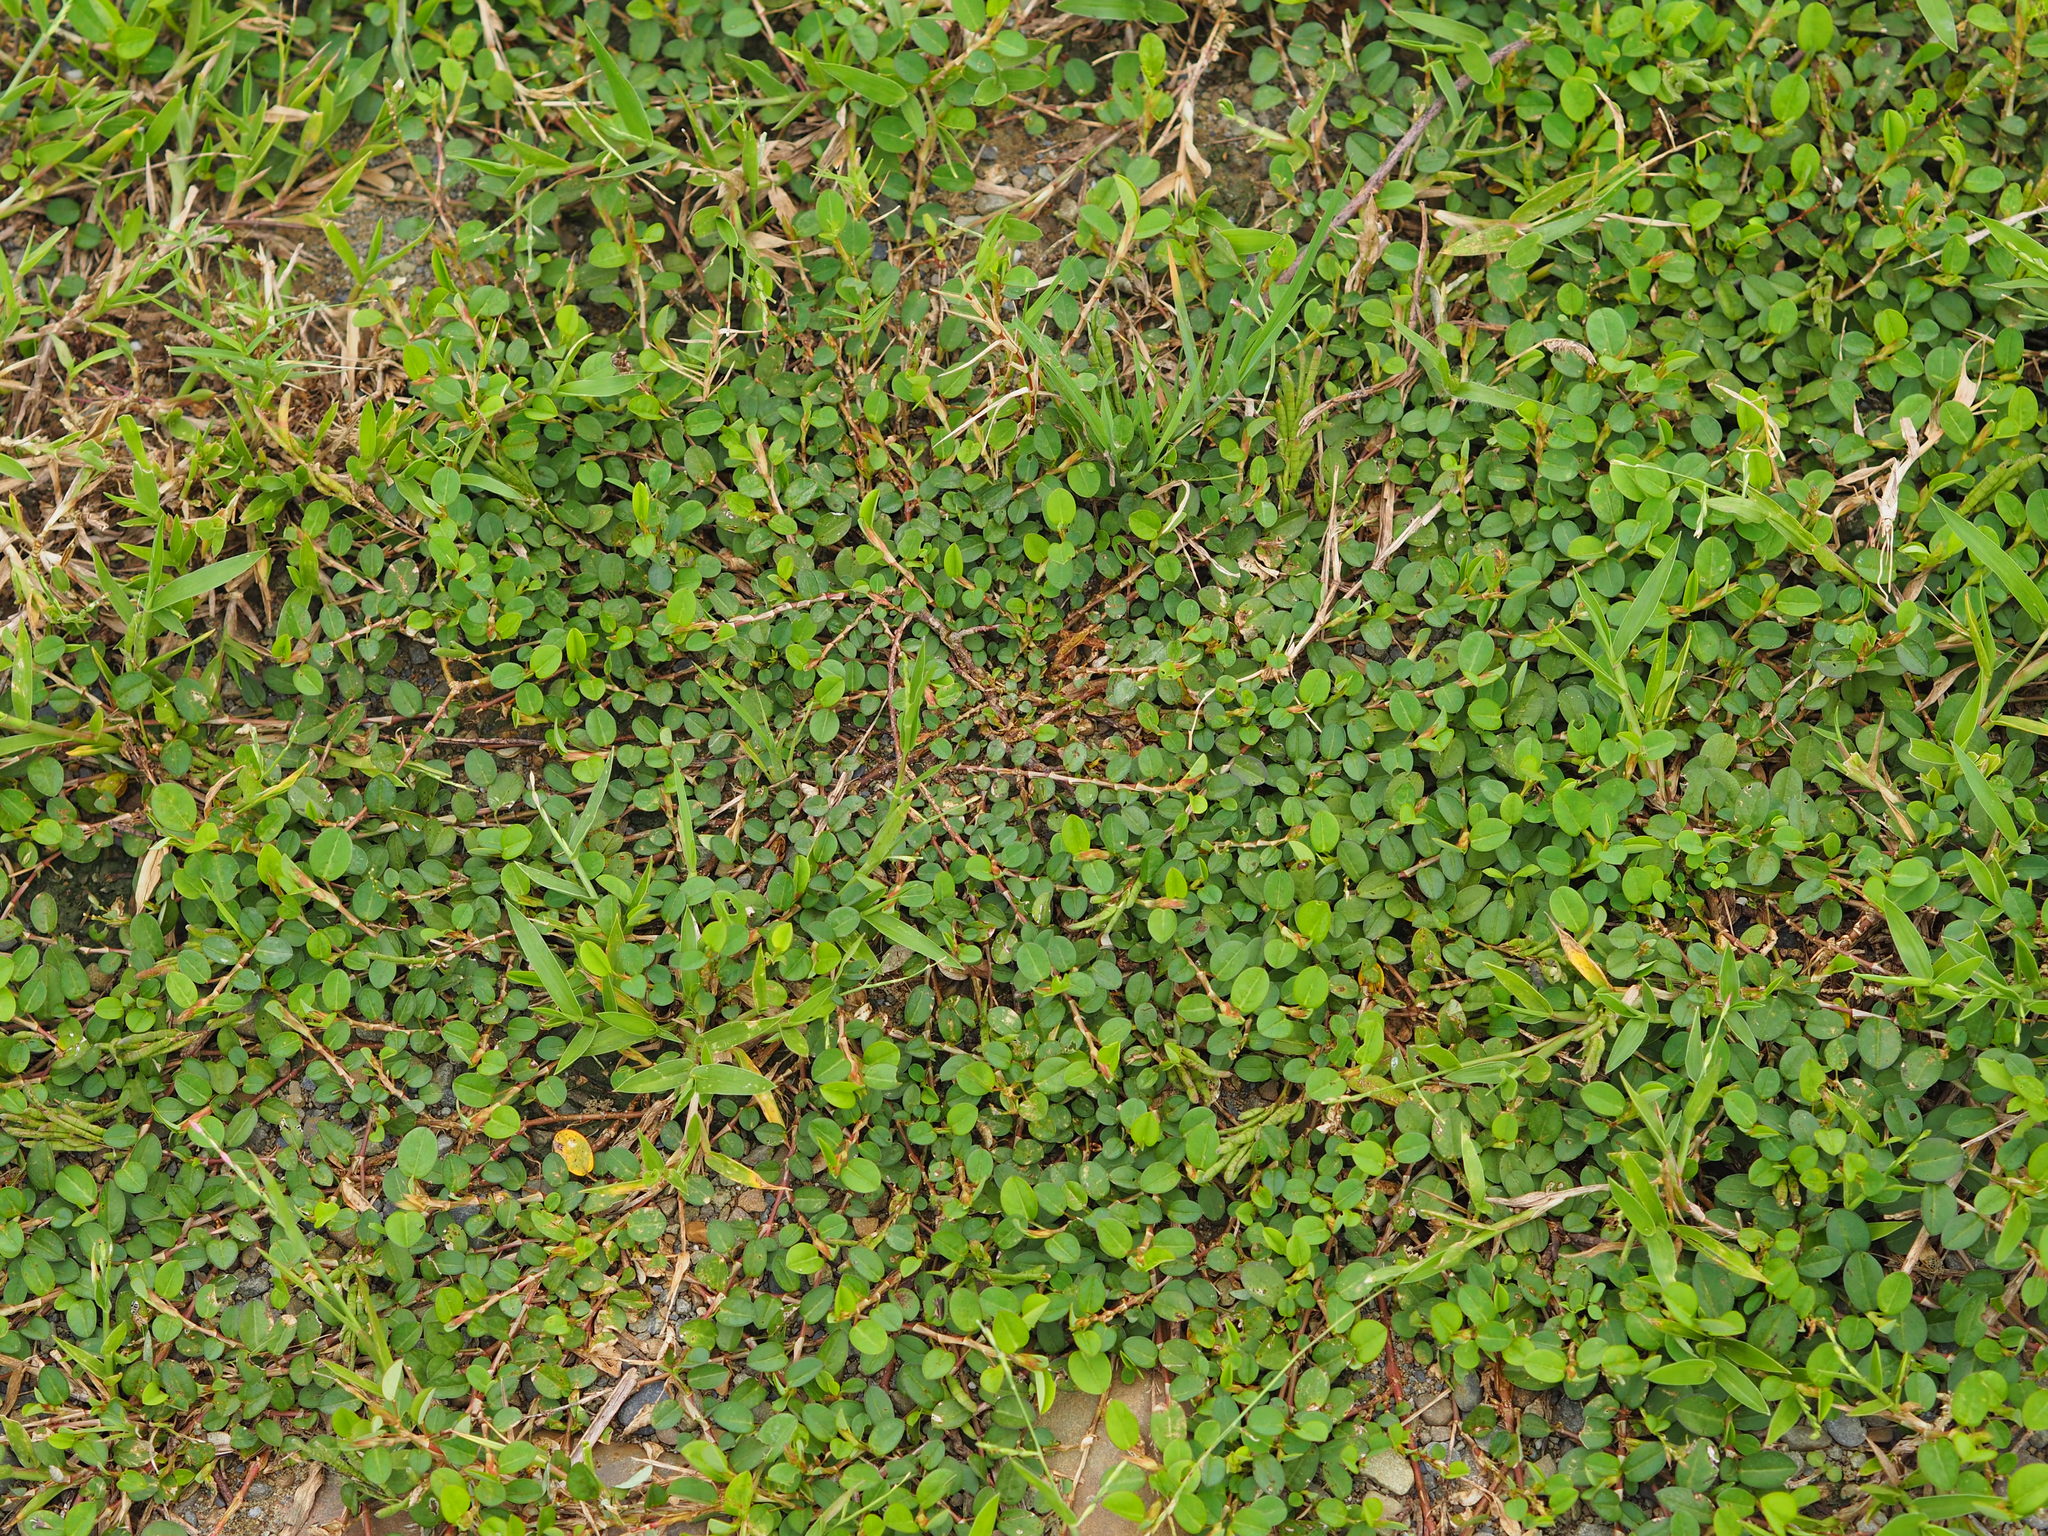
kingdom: Plantae
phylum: Tracheophyta
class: Magnoliopsida
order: Fabales
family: Fabaceae
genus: Alysicarpus
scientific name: Alysicarpus vaginalis
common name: White moneywort
